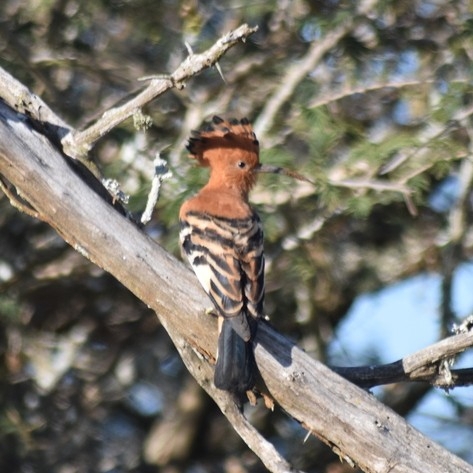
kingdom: Animalia
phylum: Chordata
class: Aves
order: Bucerotiformes
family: Upupidae
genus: Upupa
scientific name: Upupa africana
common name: African hoopoe
